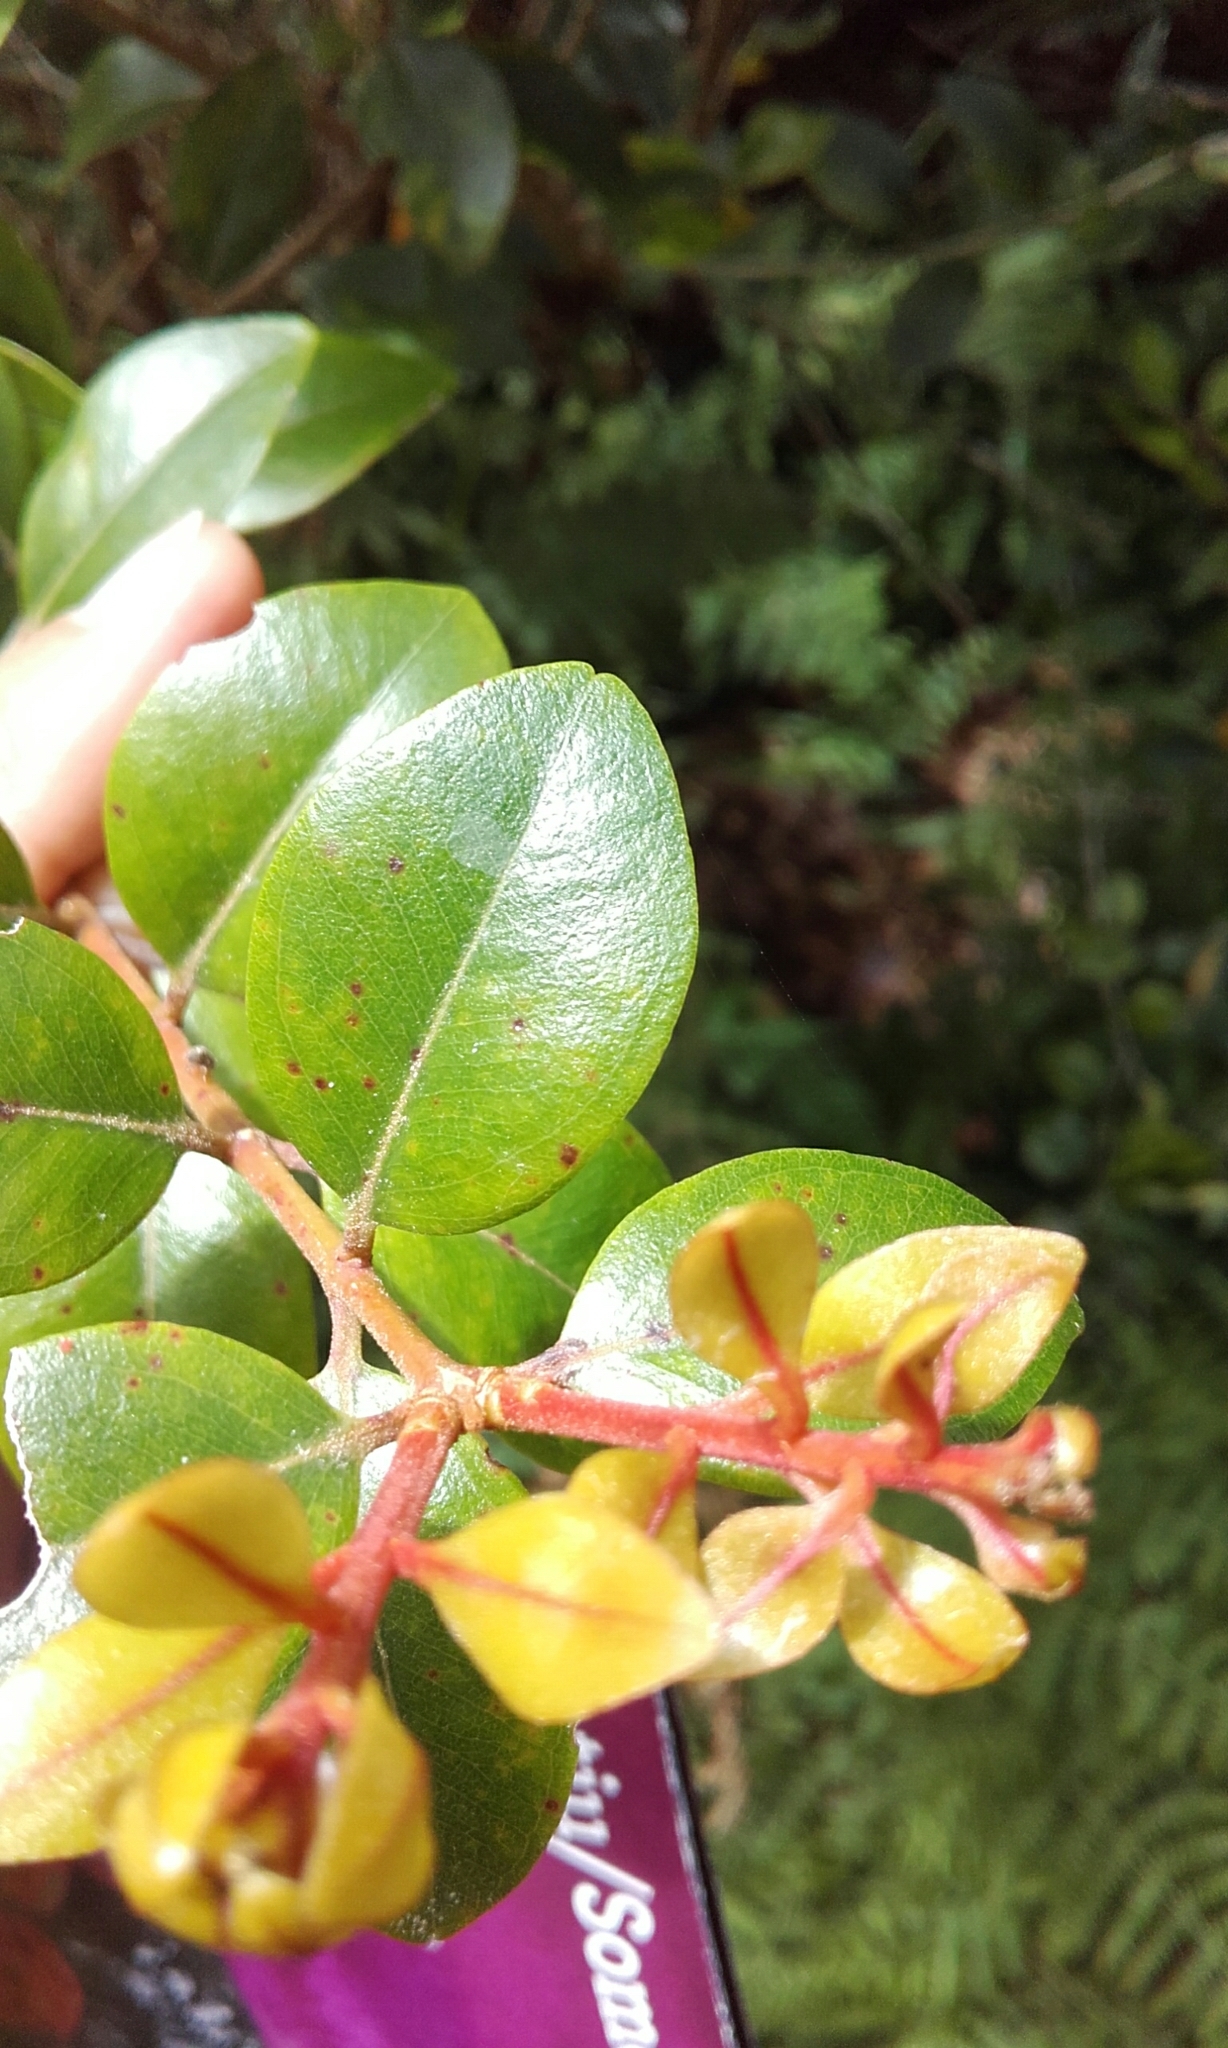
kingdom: Plantae
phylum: Tracheophyta
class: Magnoliopsida
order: Myrtales
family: Myrtaceae
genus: Metrosideros
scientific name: Metrosideros robusta
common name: Northern rata
